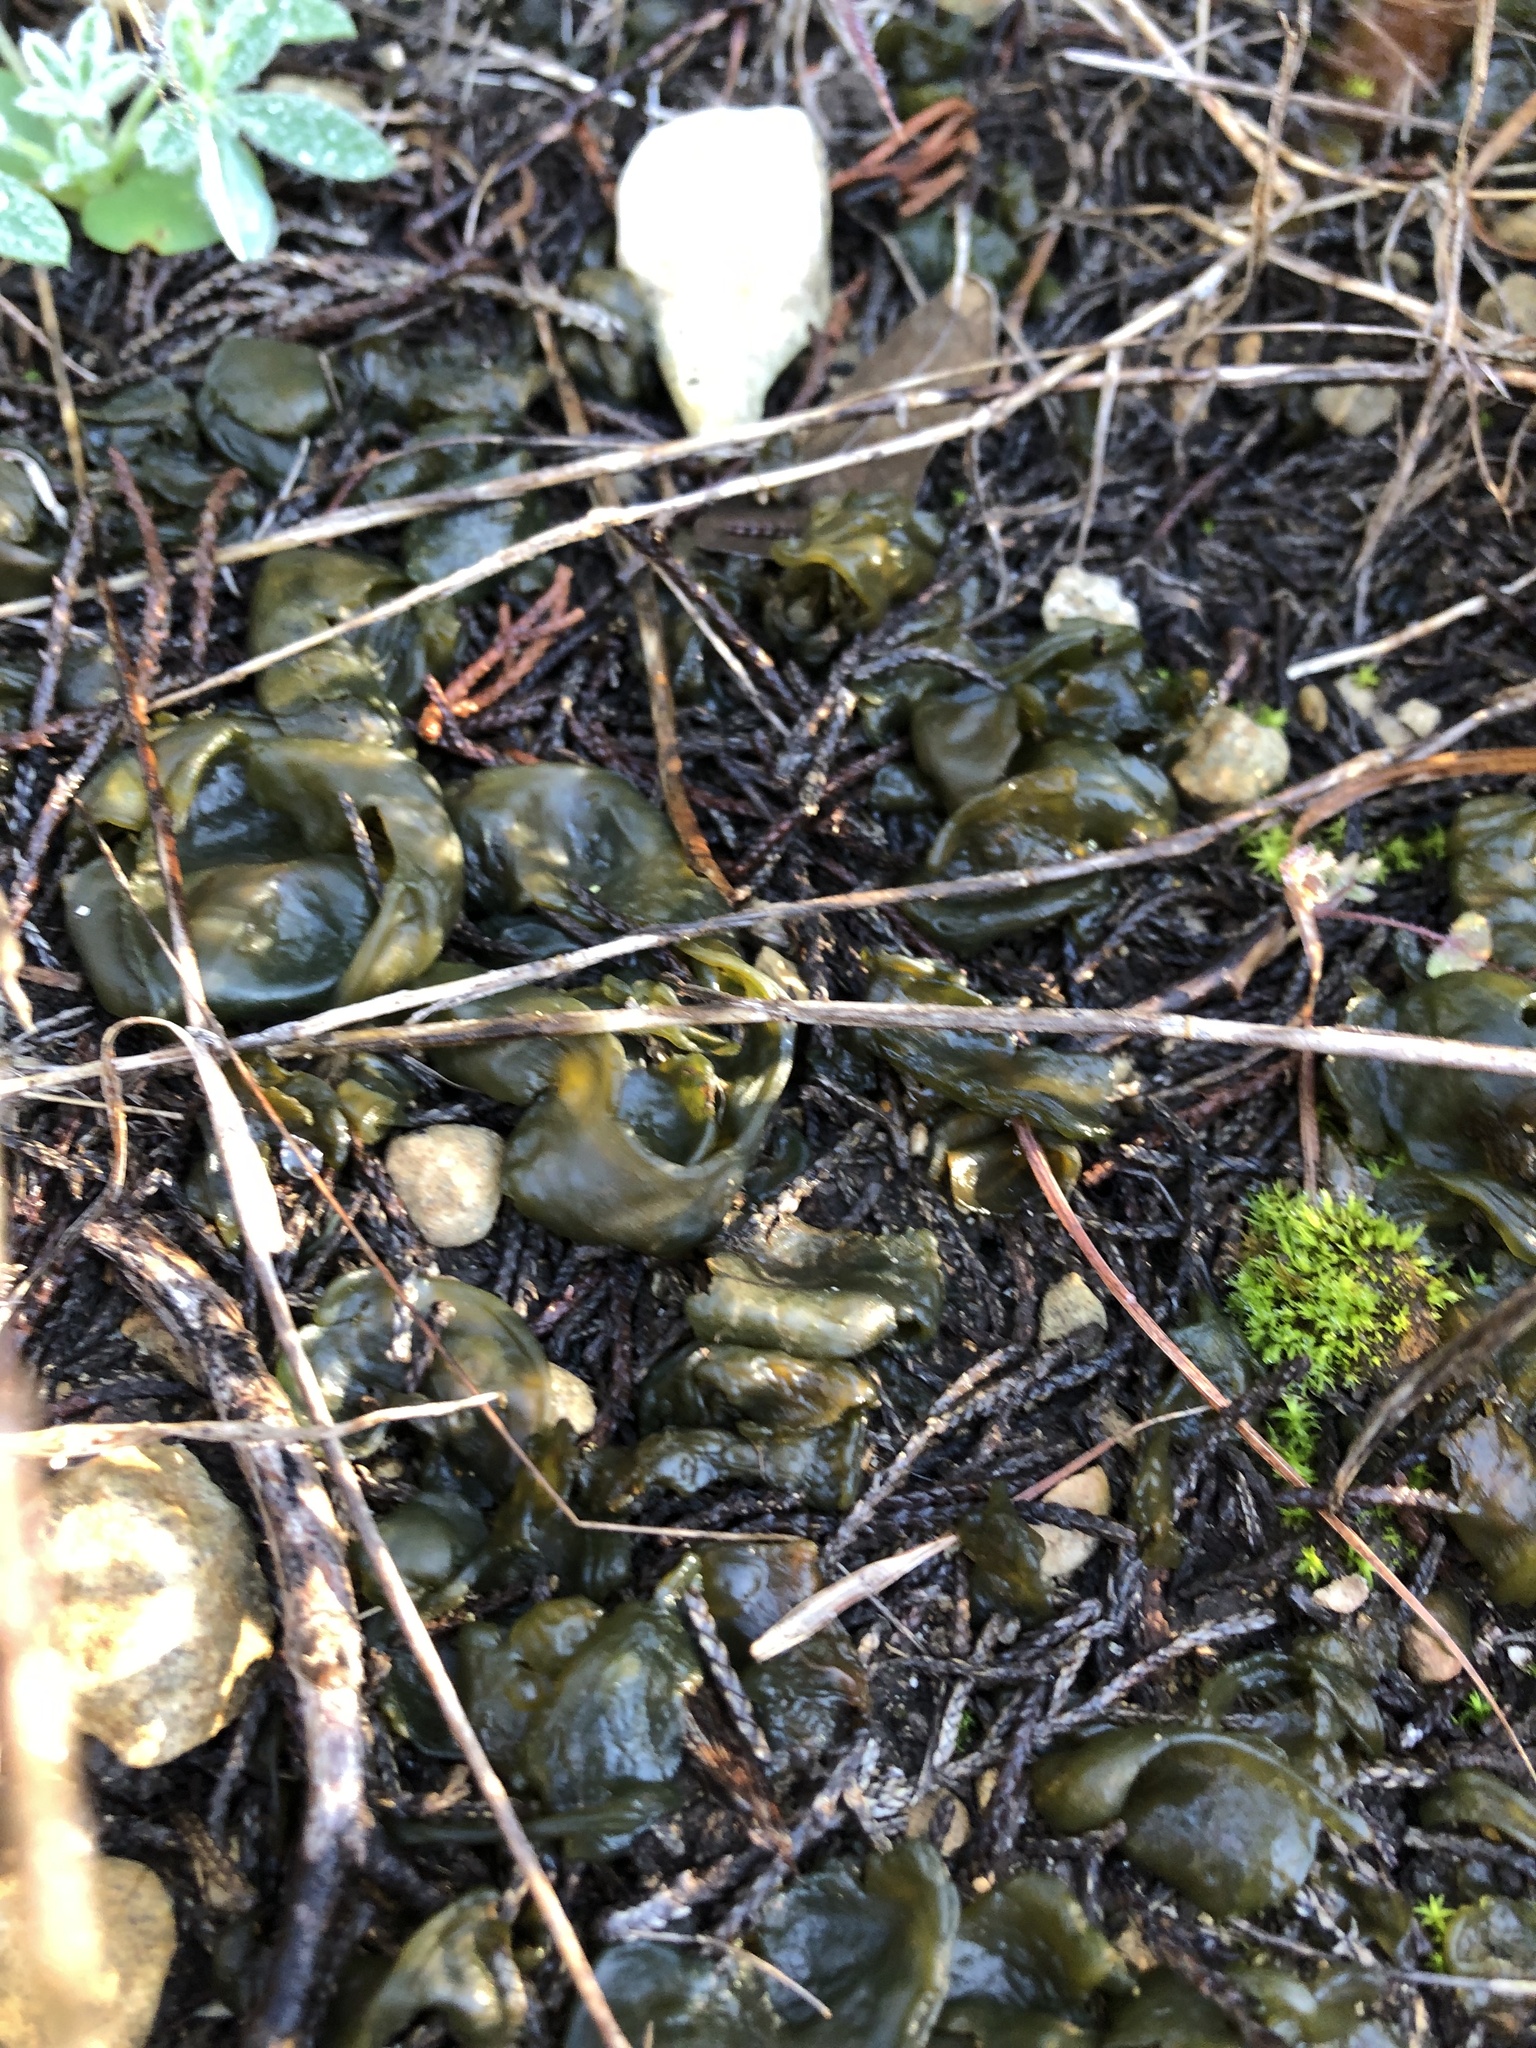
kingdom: Bacteria
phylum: Cyanobacteria
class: Cyanobacteriia
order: Cyanobacteriales
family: Nostocaceae
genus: Nostoc
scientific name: Nostoc commune
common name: Star jelly
